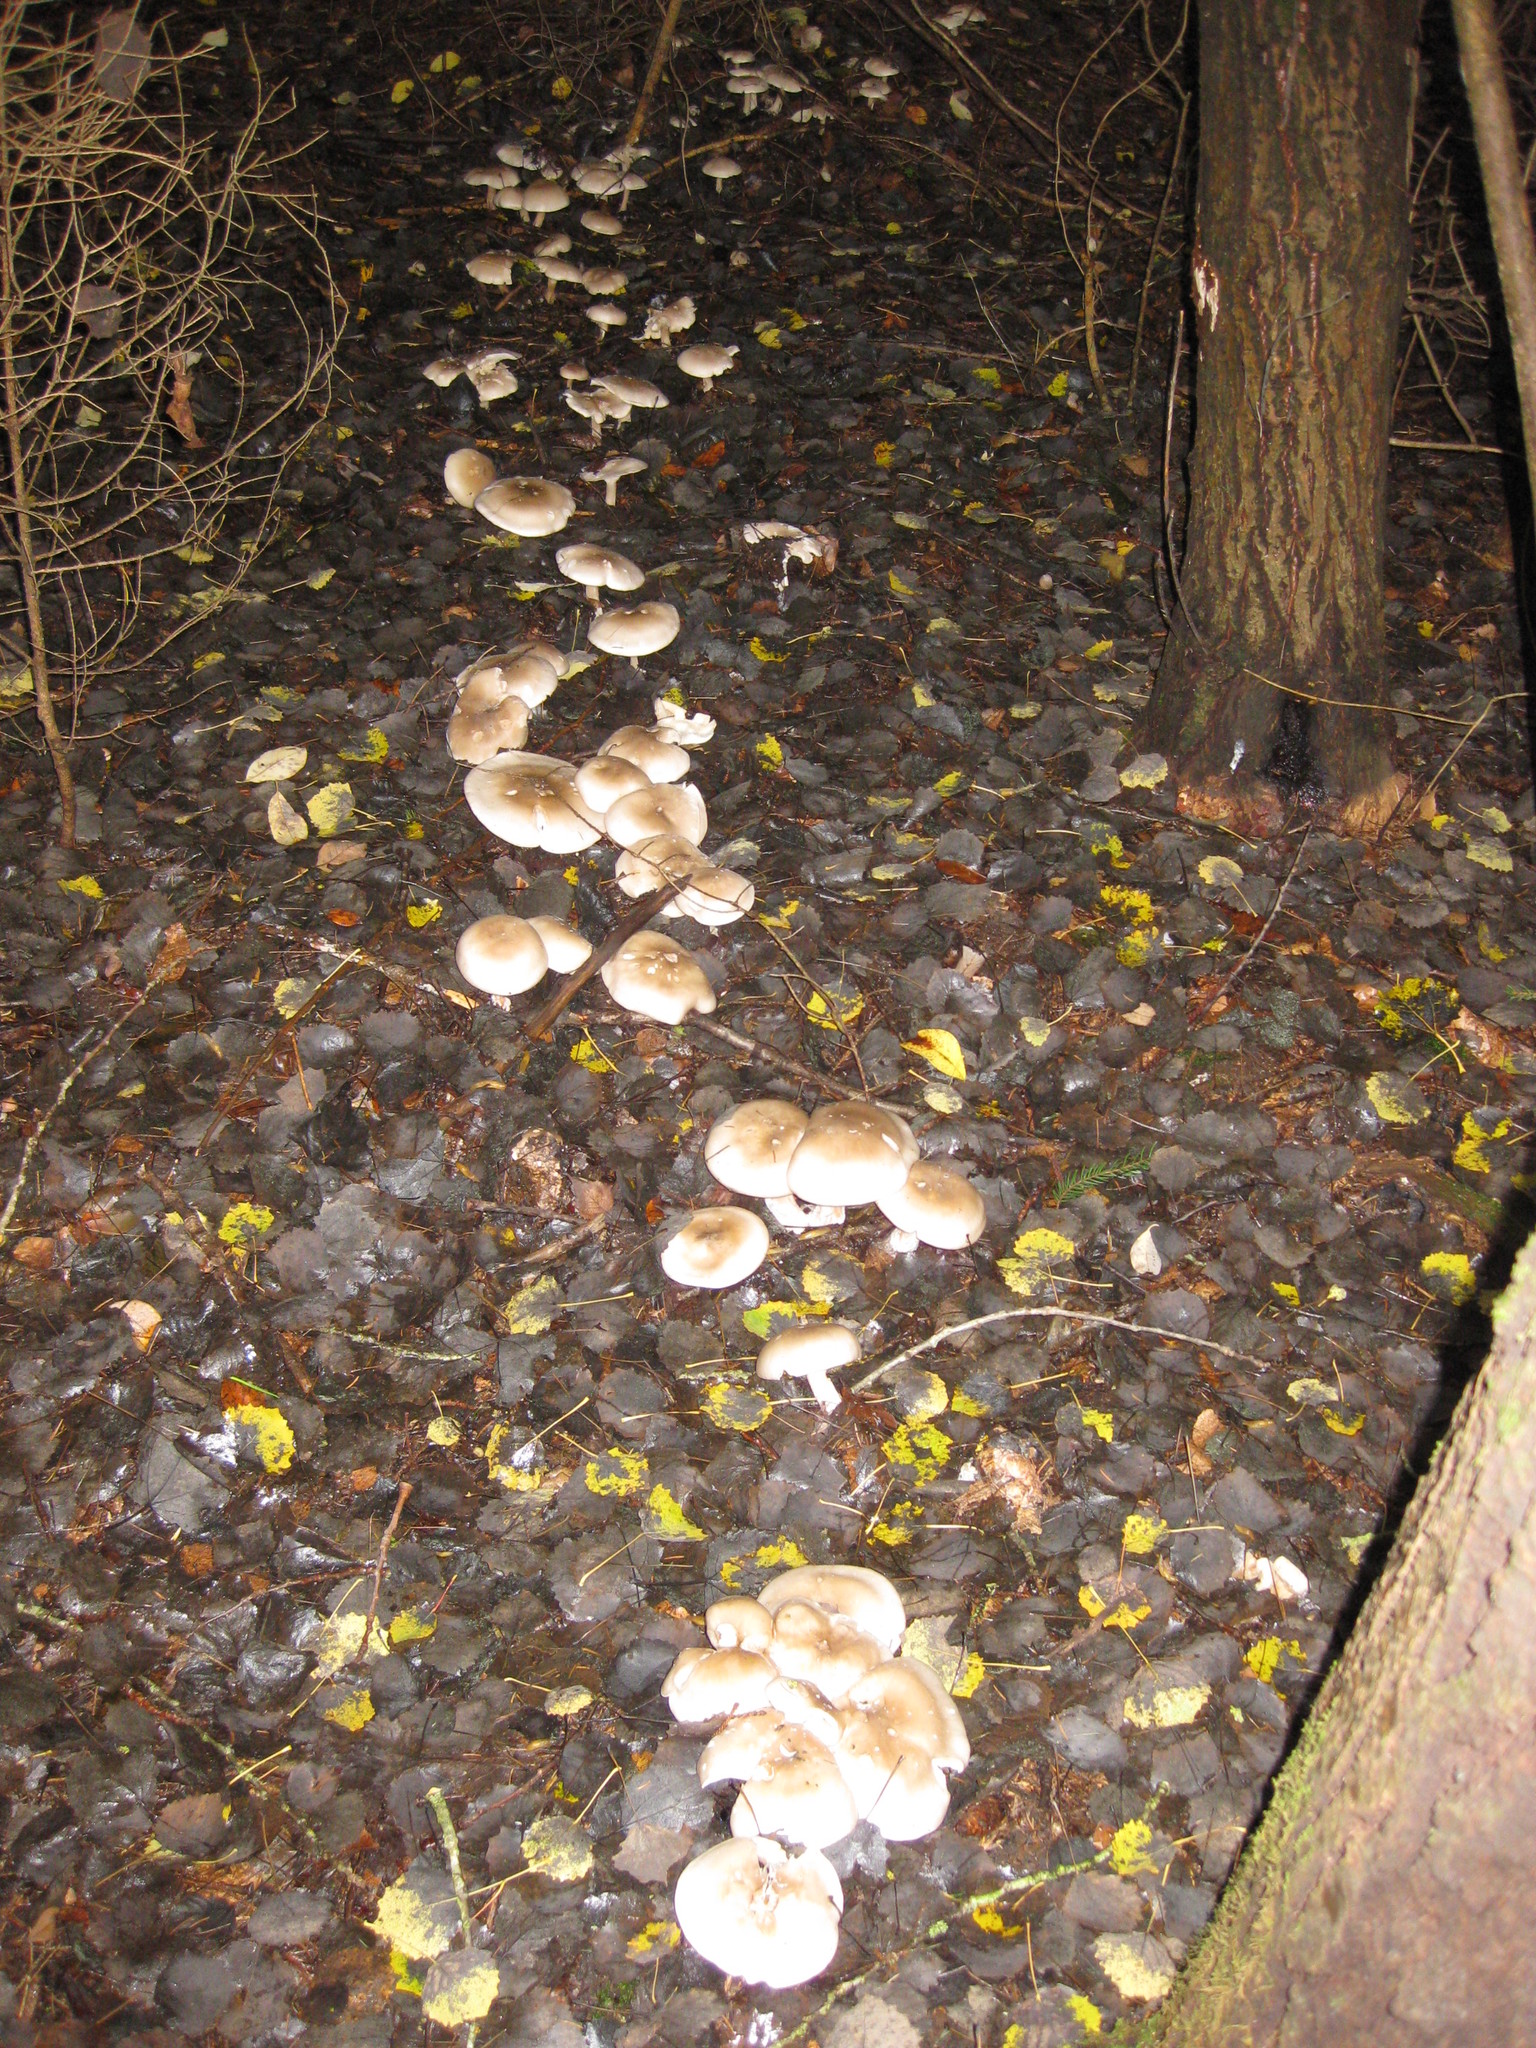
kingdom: Fungi
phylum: Basidiomycota
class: Agaricomycetes
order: Agaricales
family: Tricholomataceae
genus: Clitocybe
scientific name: Clitocybe nebularis
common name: Clouded agaric
